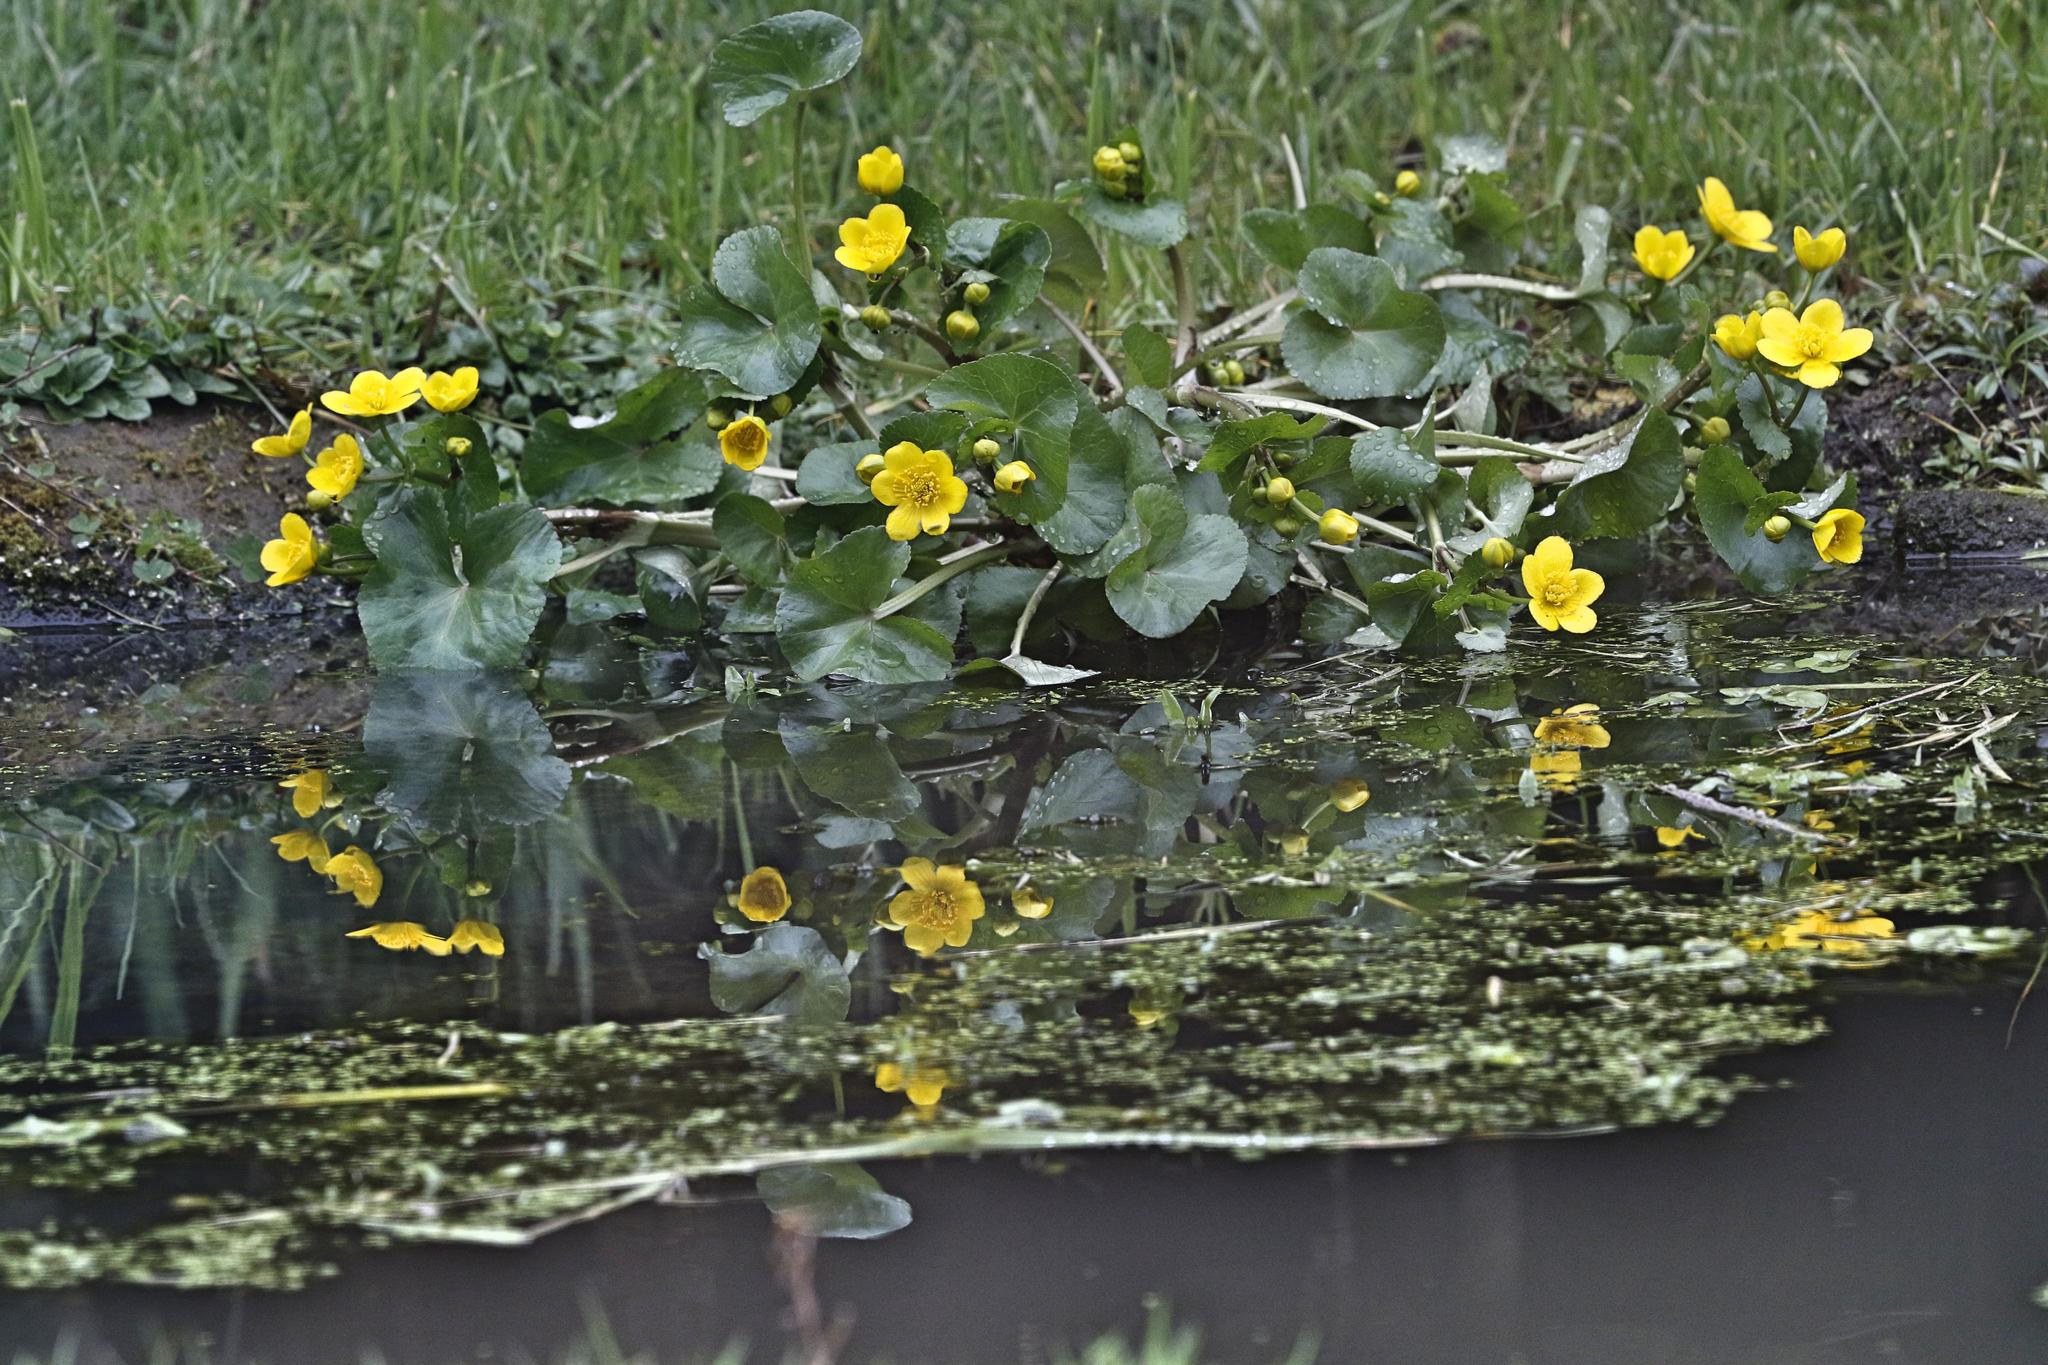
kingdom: Plantae
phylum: Tracheophyta
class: Magnoliopsida
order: Ranunculales
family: Ranunculaceae
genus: Caltha
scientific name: Caltha palustris
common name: Marsh marigold
